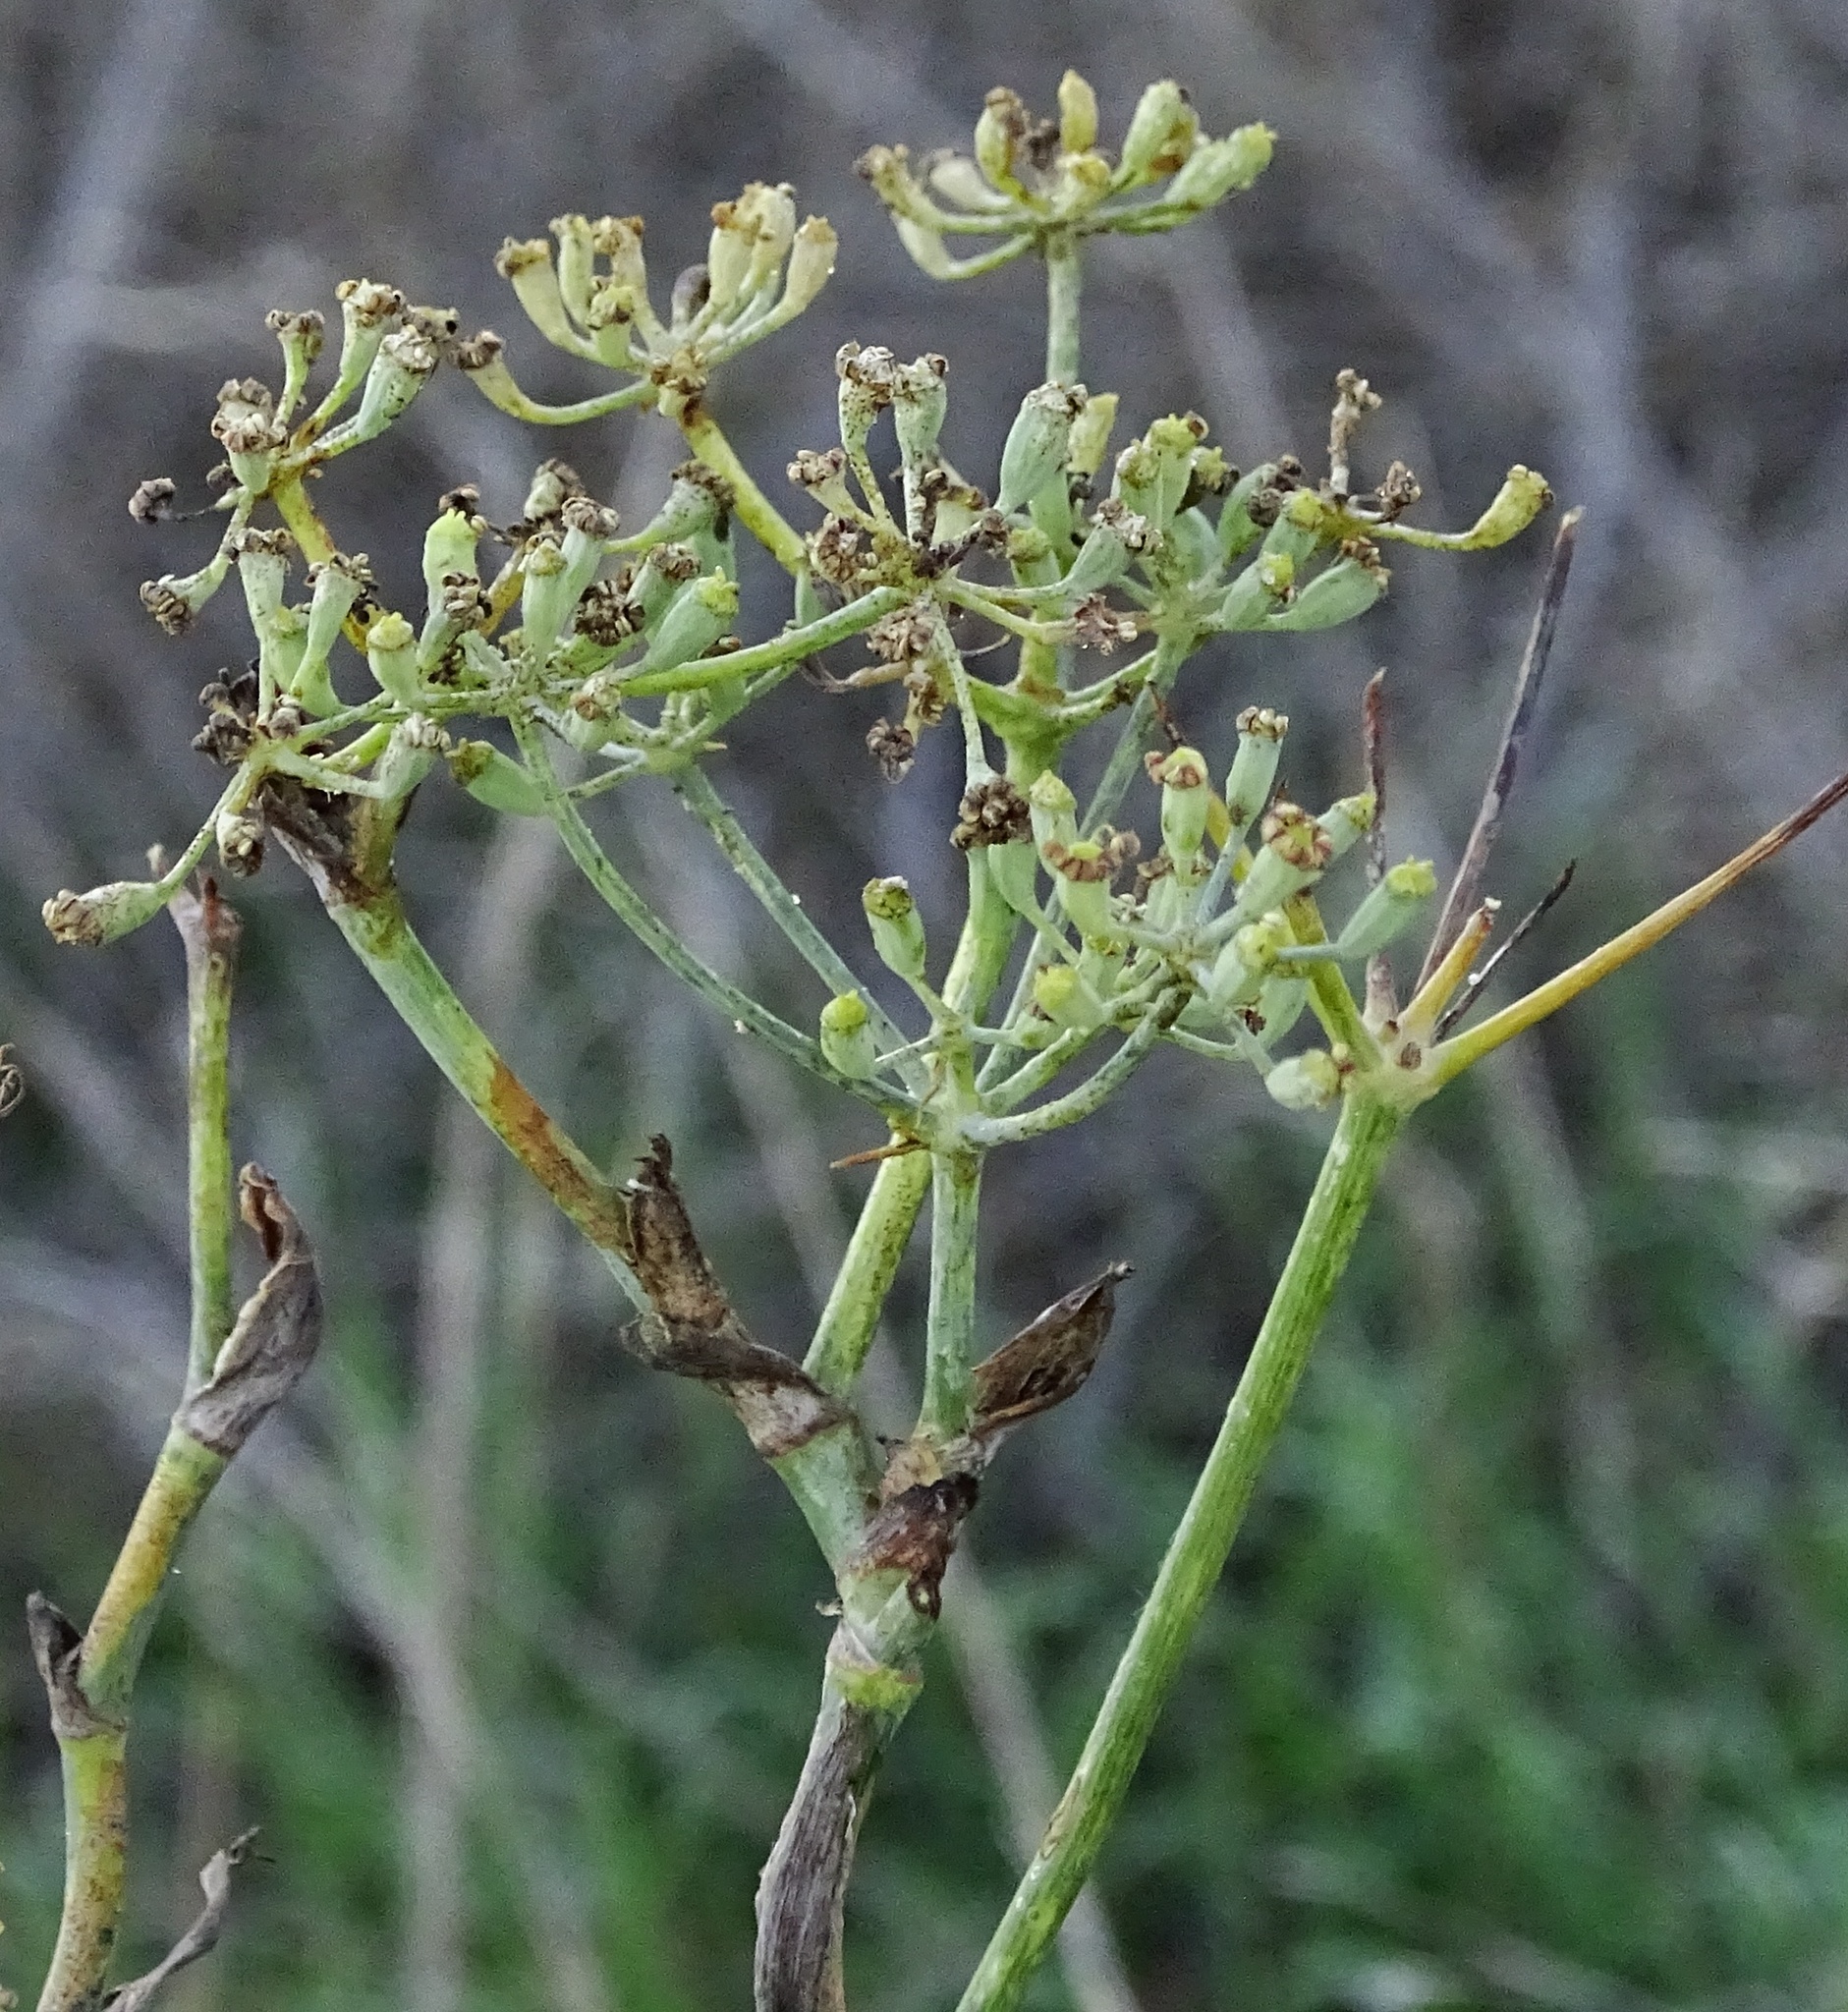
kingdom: Plantae
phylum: Tracheophyta
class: Magnoliopsida
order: Apiales
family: Apiaceae
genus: Foeniculum
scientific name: Foeniculum vulgare
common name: Fennel
